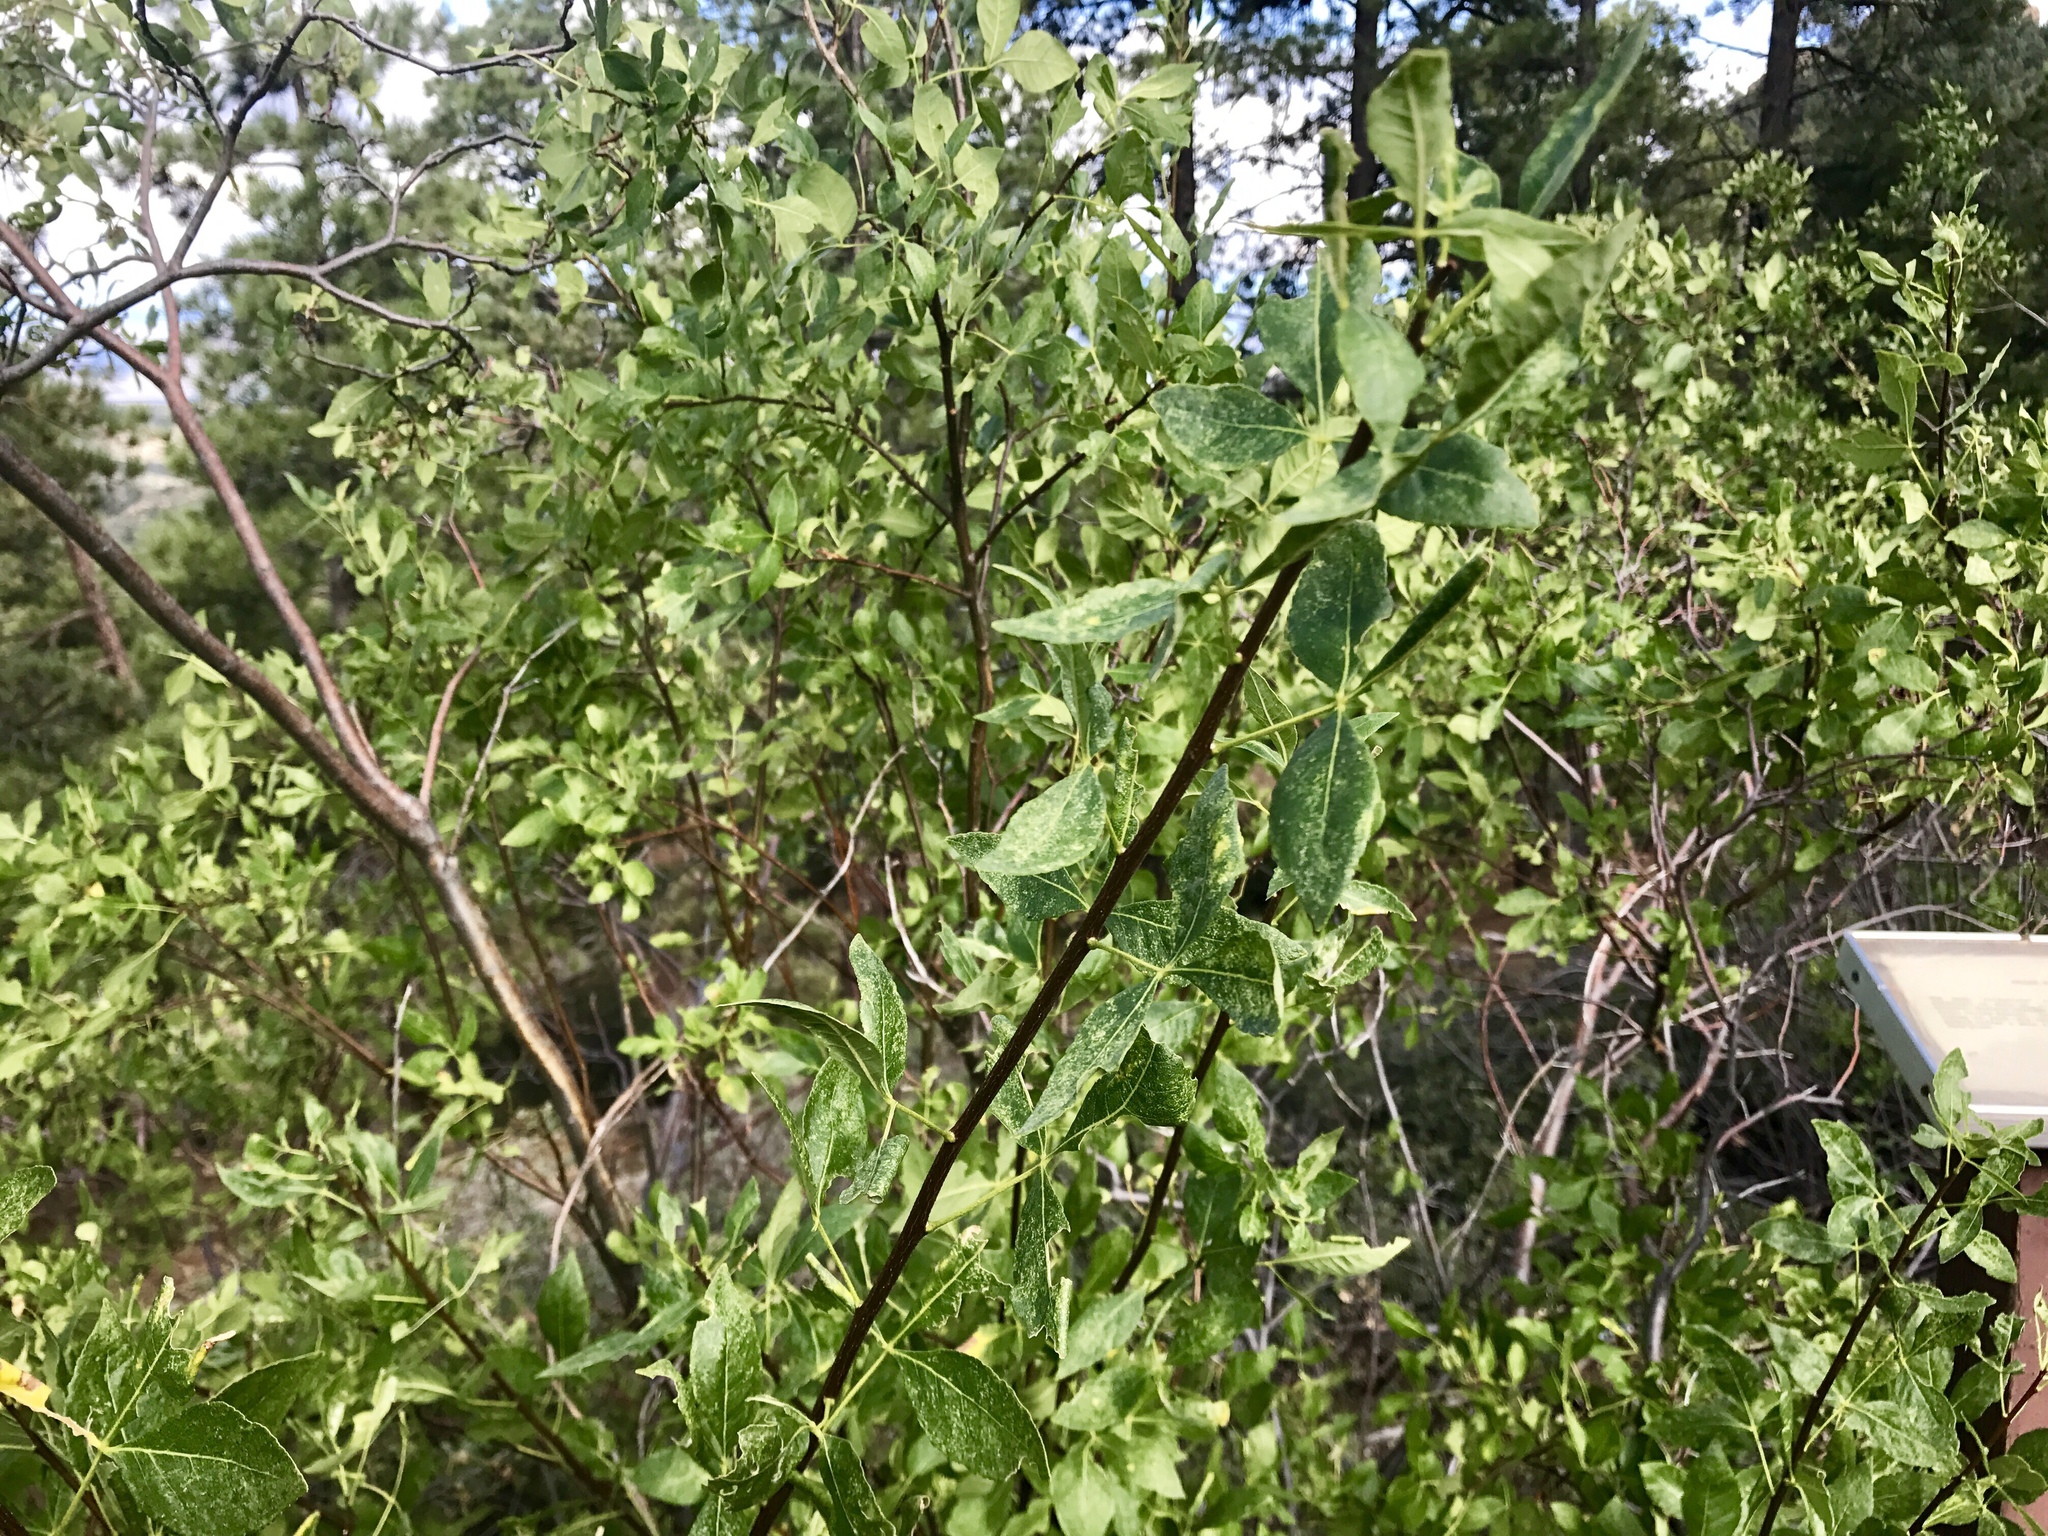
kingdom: Plantae
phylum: Tracheophyta
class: Magnoliopsida
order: Sapindales
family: Rutaceae
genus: Ptelea
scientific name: Ptelea trifoliata
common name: Common hop-tree
